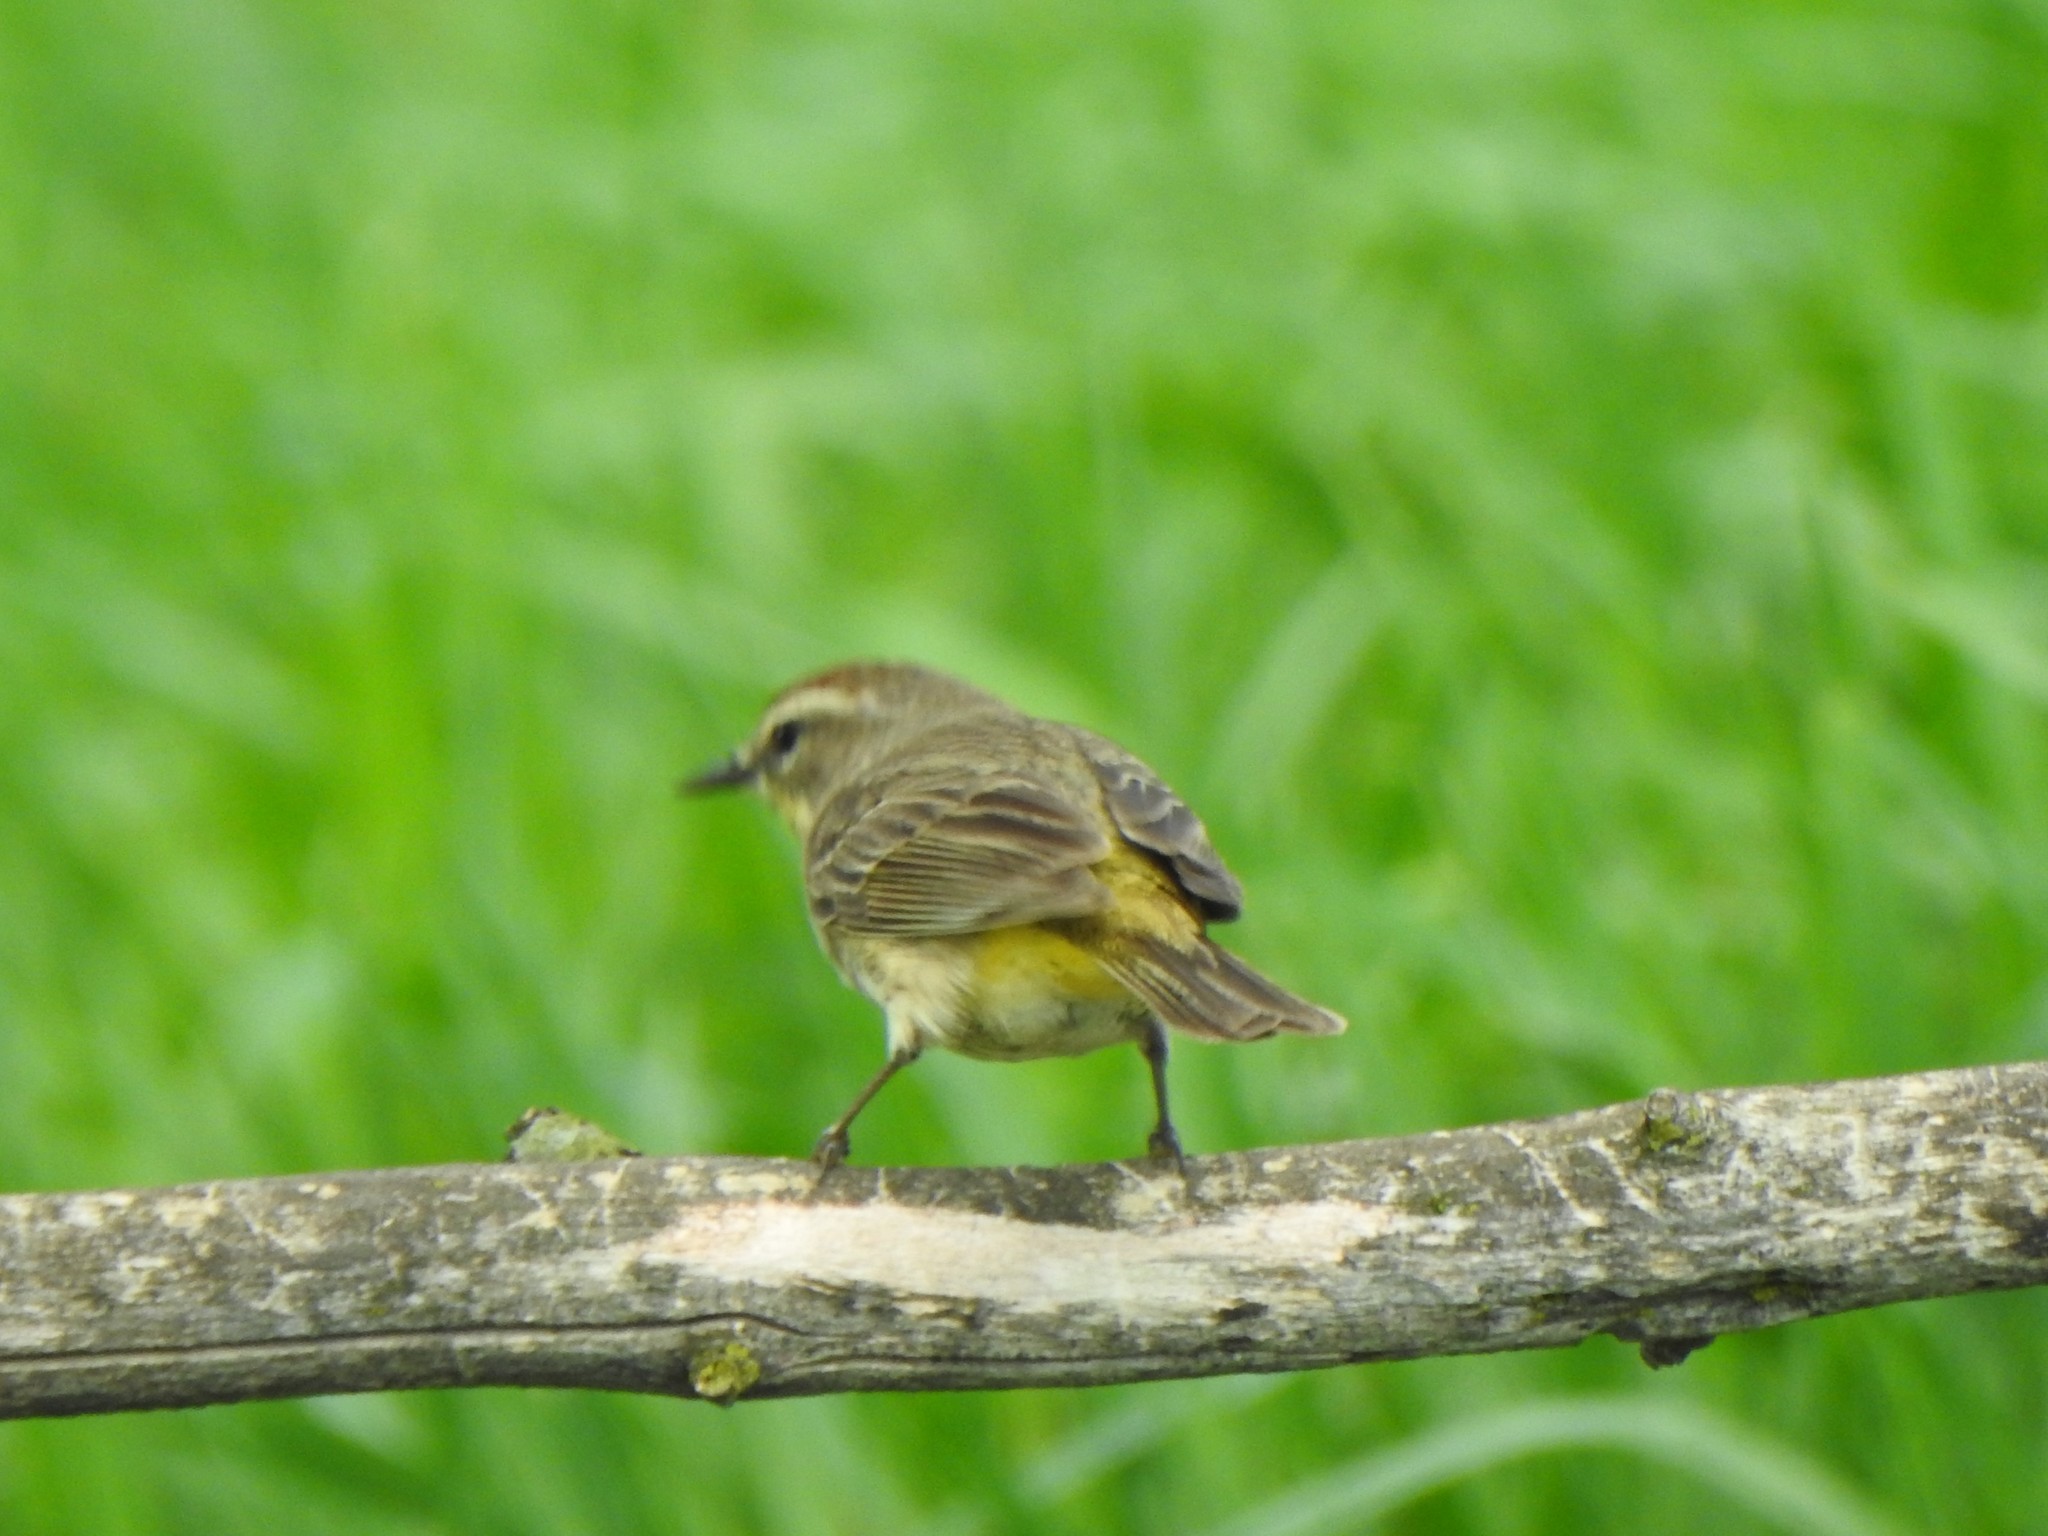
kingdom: Animalia
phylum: Chordata
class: Aves
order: Passeriformes
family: Parulidae
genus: Setophaga
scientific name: Setophaga palmarum
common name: Palm warbler
